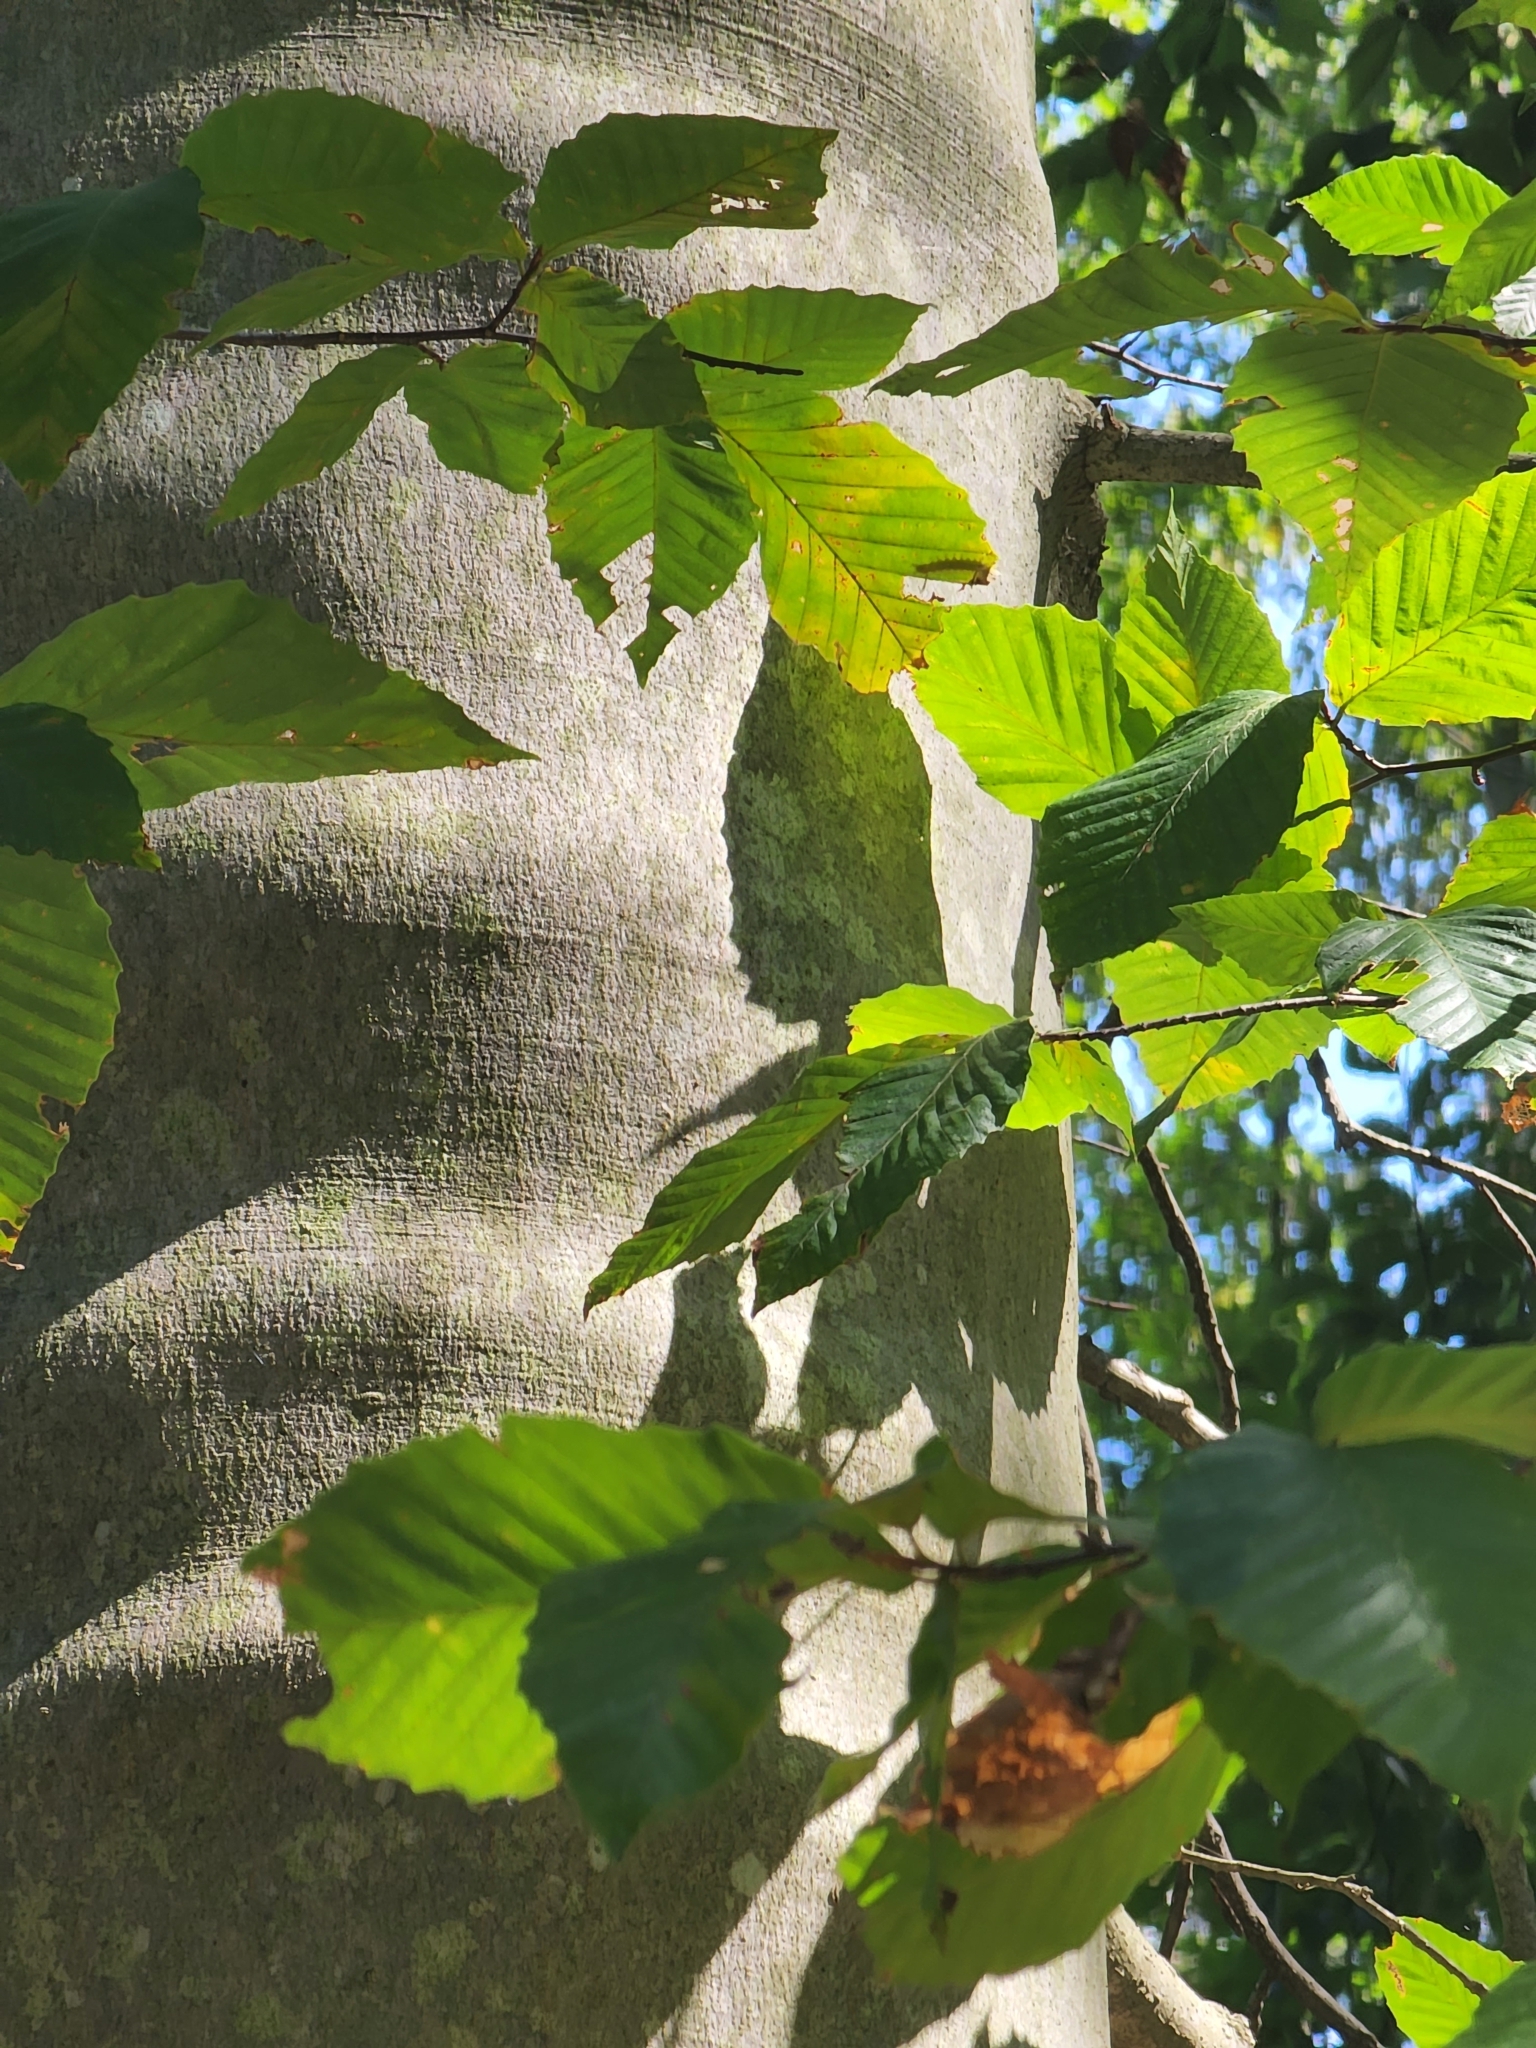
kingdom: Plantae
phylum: Tracheophyta
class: Magnoliopsida
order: Fagales
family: Fagaceae
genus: Fagus
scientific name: Fagus grandifolia
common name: American beech
